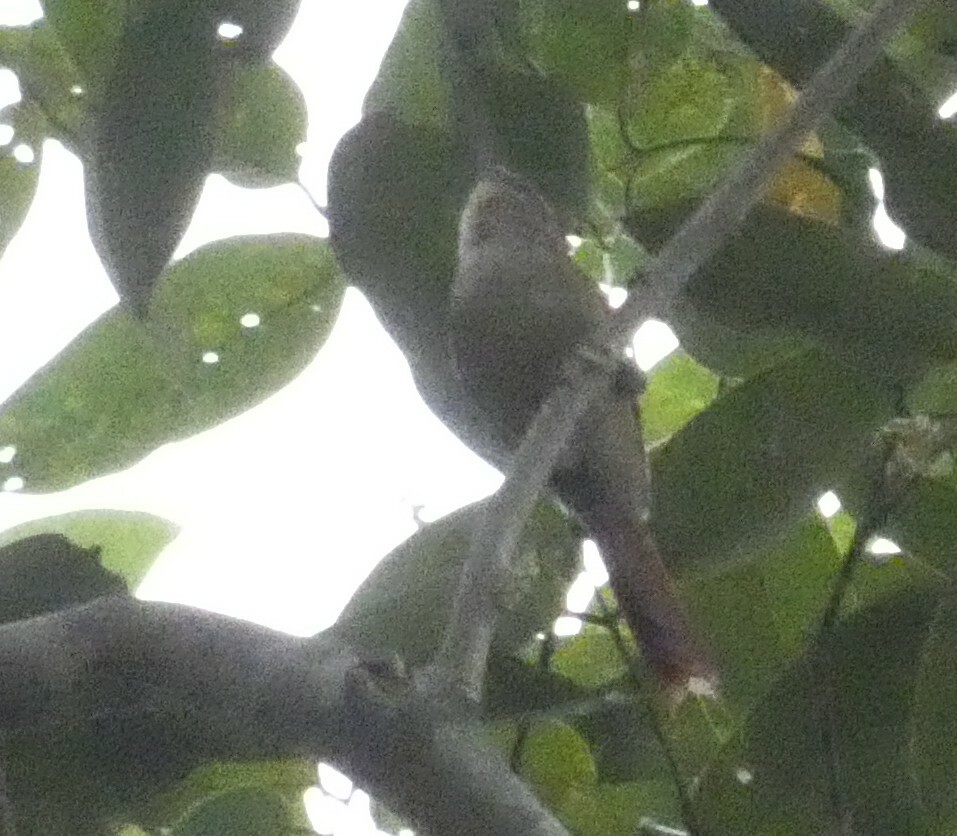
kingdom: Animalia
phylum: Chordata
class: Aves
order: Passeriformes
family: Furnariidae
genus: Cranioleuca
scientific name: Cranioleuca pallida
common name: Pallid spinetail
